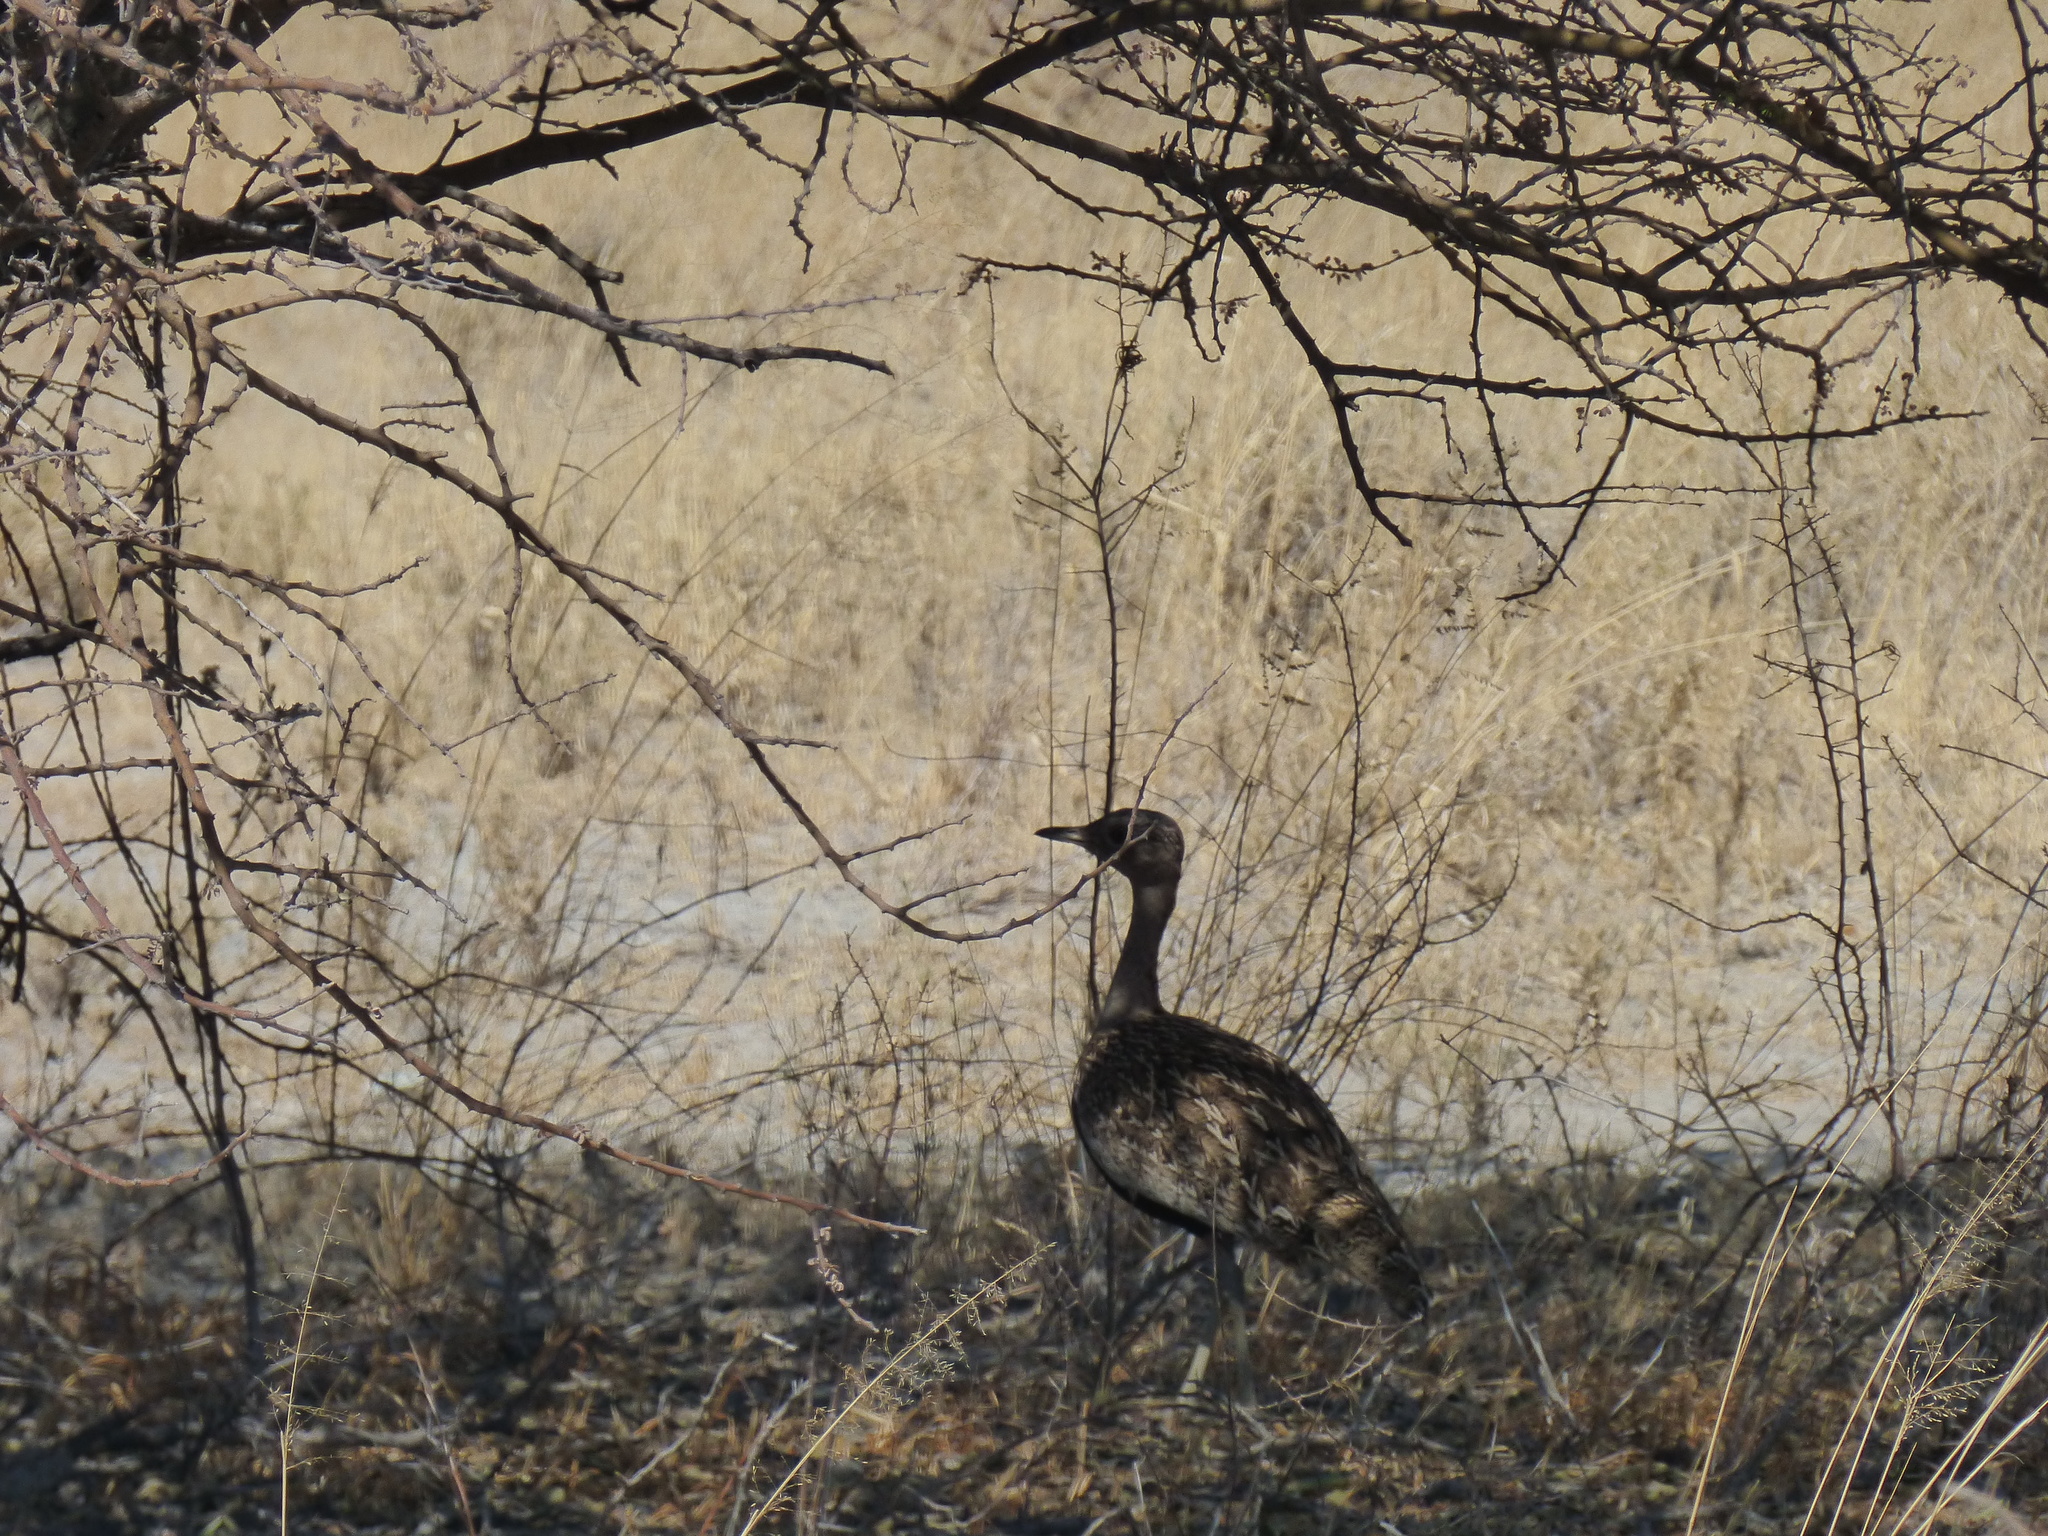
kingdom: Animalia
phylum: Chordata
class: Aves
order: Otidiformes
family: Otididae
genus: Lophotis
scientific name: Lophotis ruficrista
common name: Red-crested korhaan
